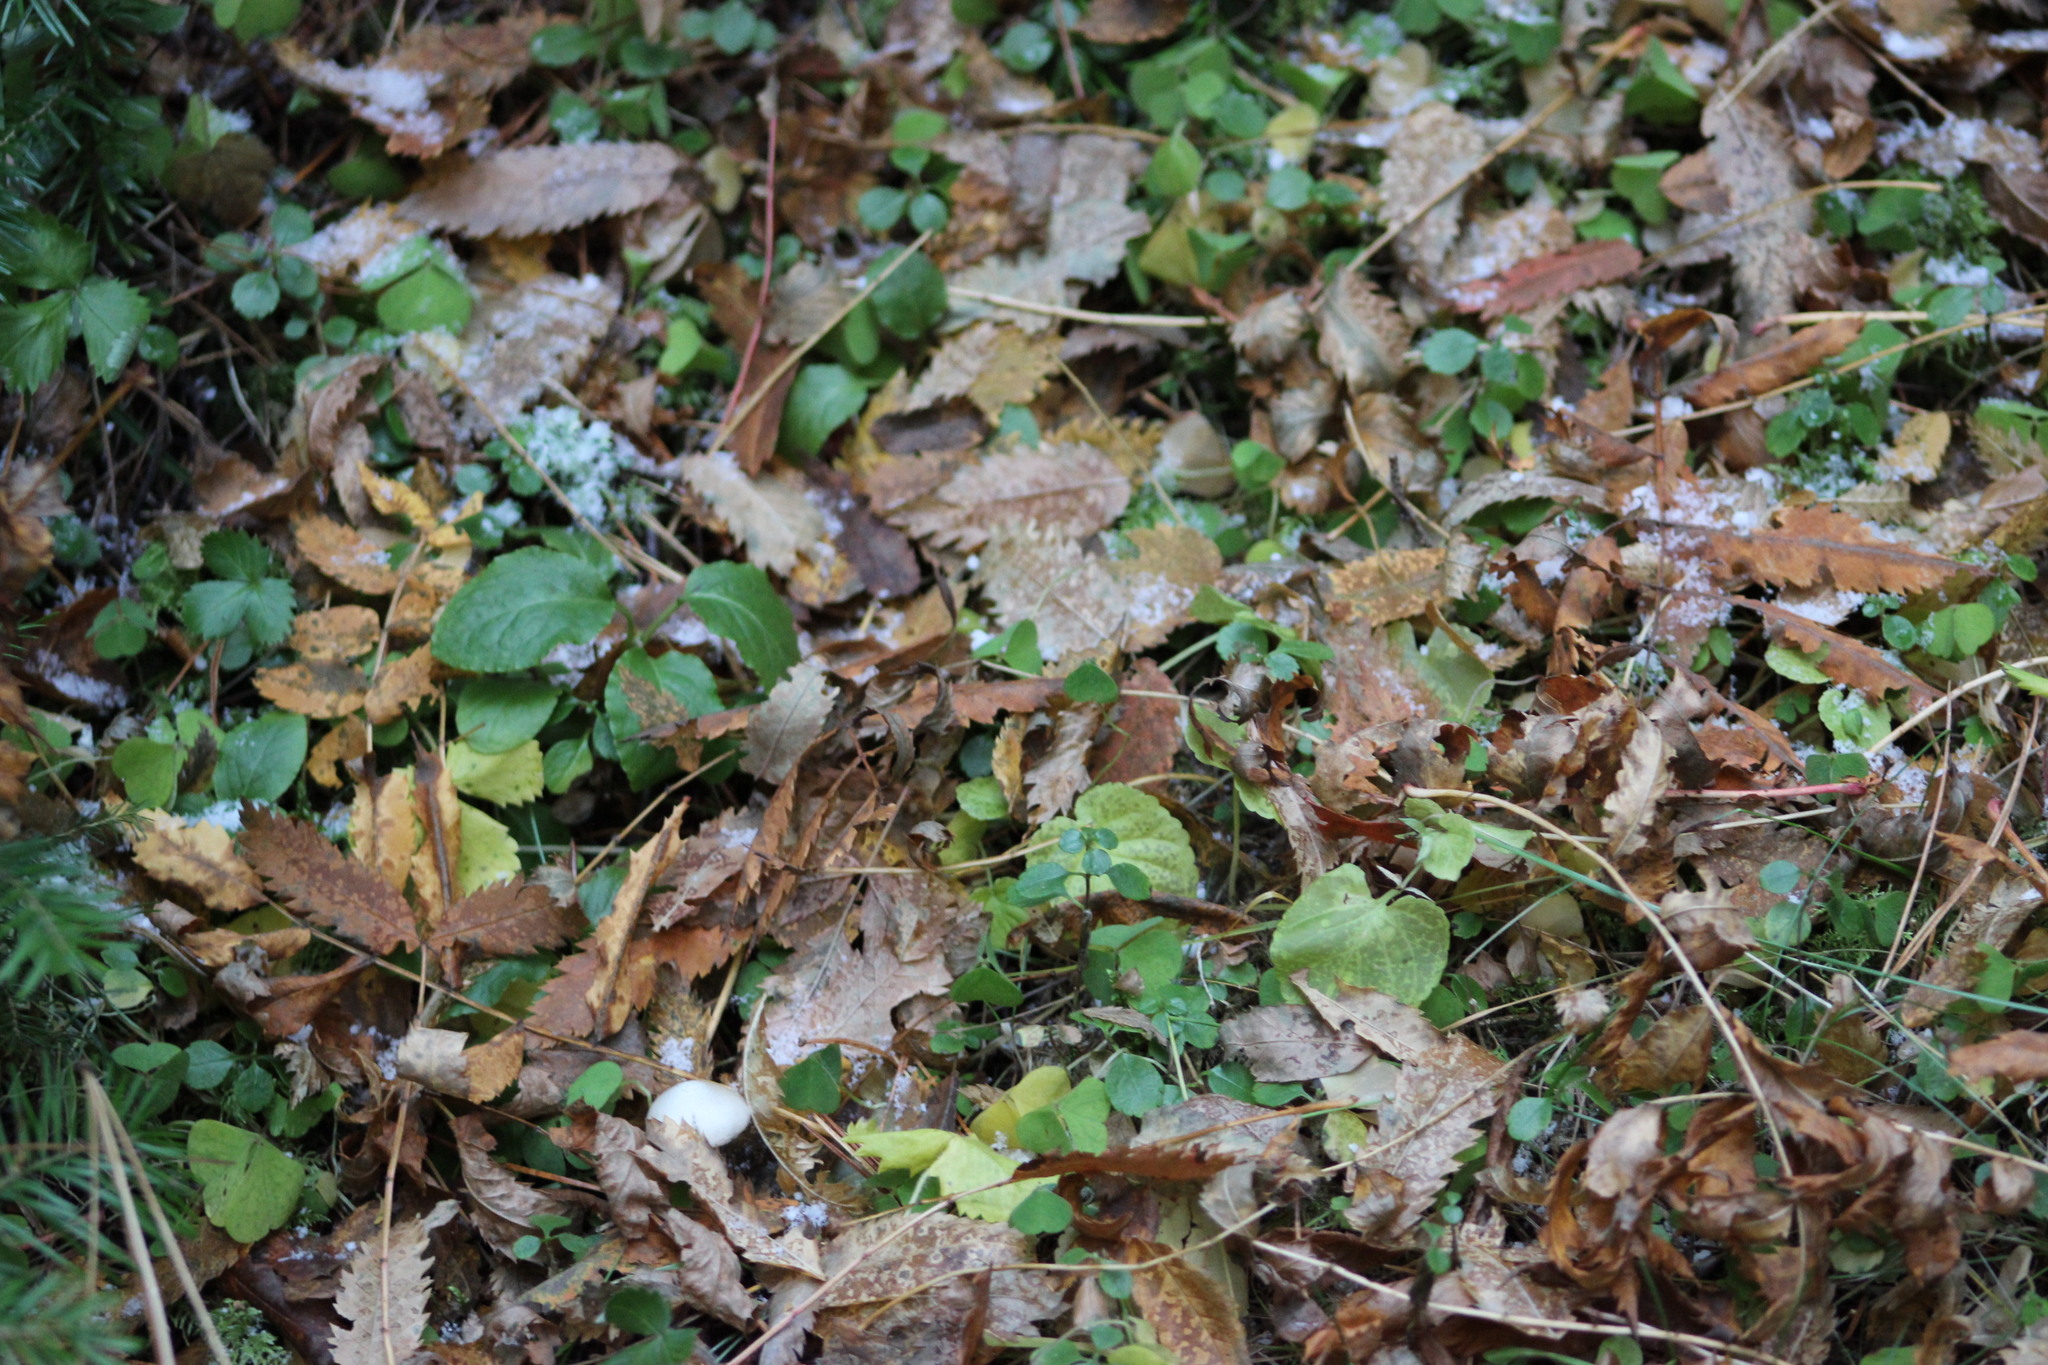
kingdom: Plantae
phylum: Tracheophyta
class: Magnoliopsida
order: Ericales
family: Ericaceae
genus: Orthilia
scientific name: Orthilia secunda
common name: One-sided orthilia
